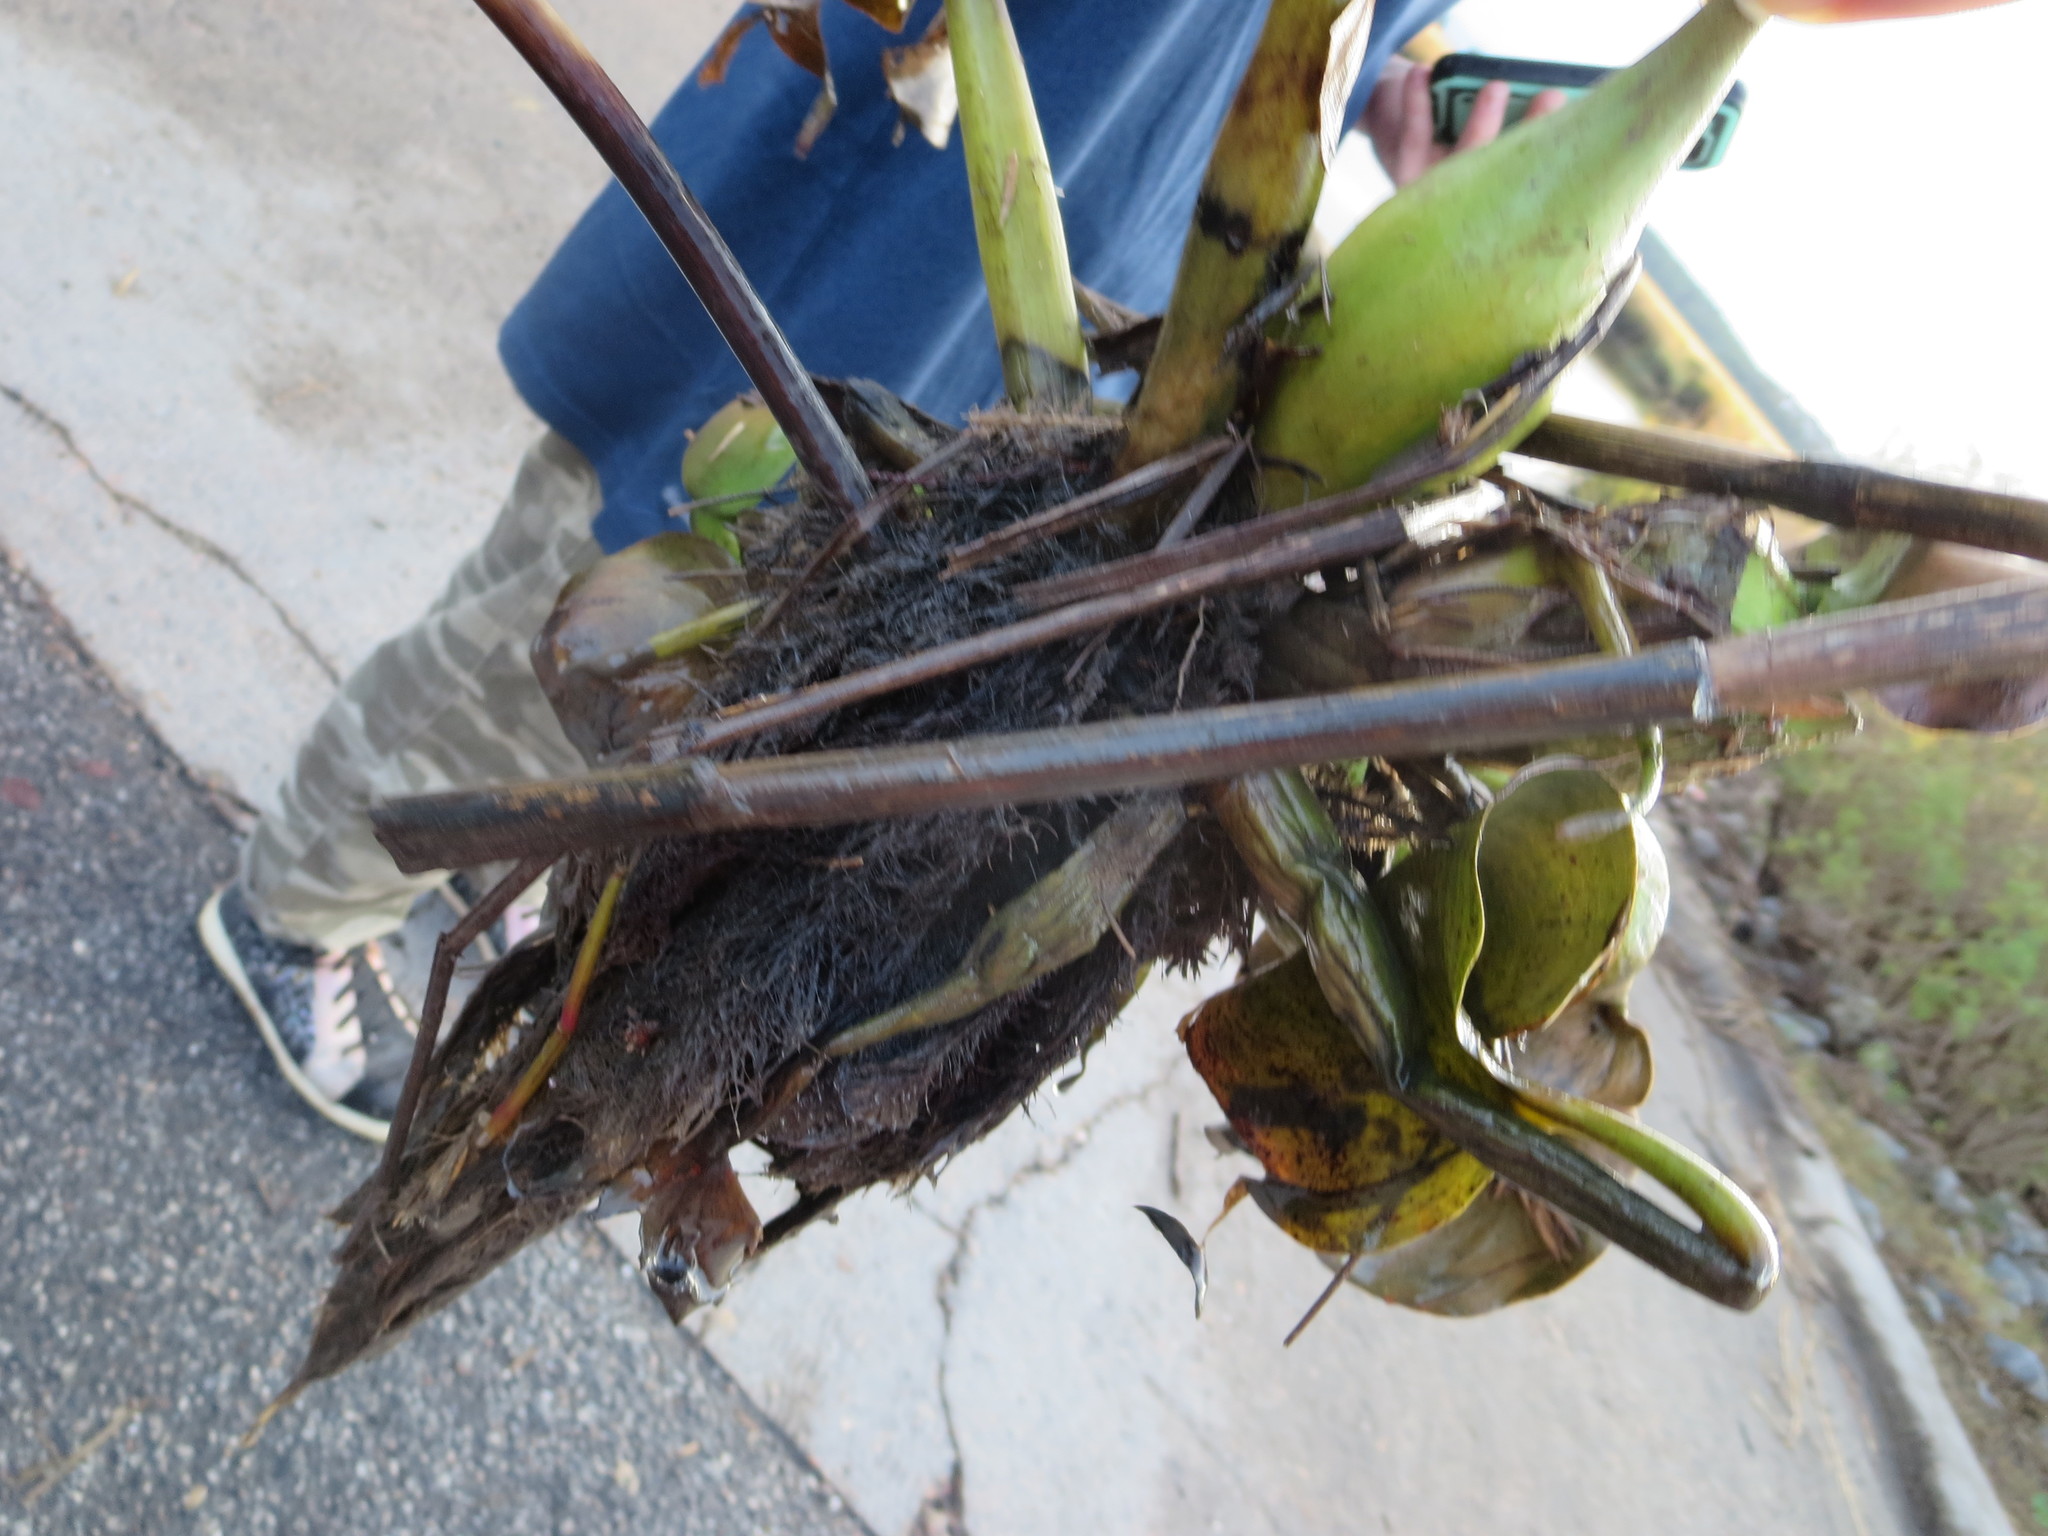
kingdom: Plantae
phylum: Tracheophyta
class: Liliopsida
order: Commelinales
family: Pontederiaceae
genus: Pontederia
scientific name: Pontederia crassipes
